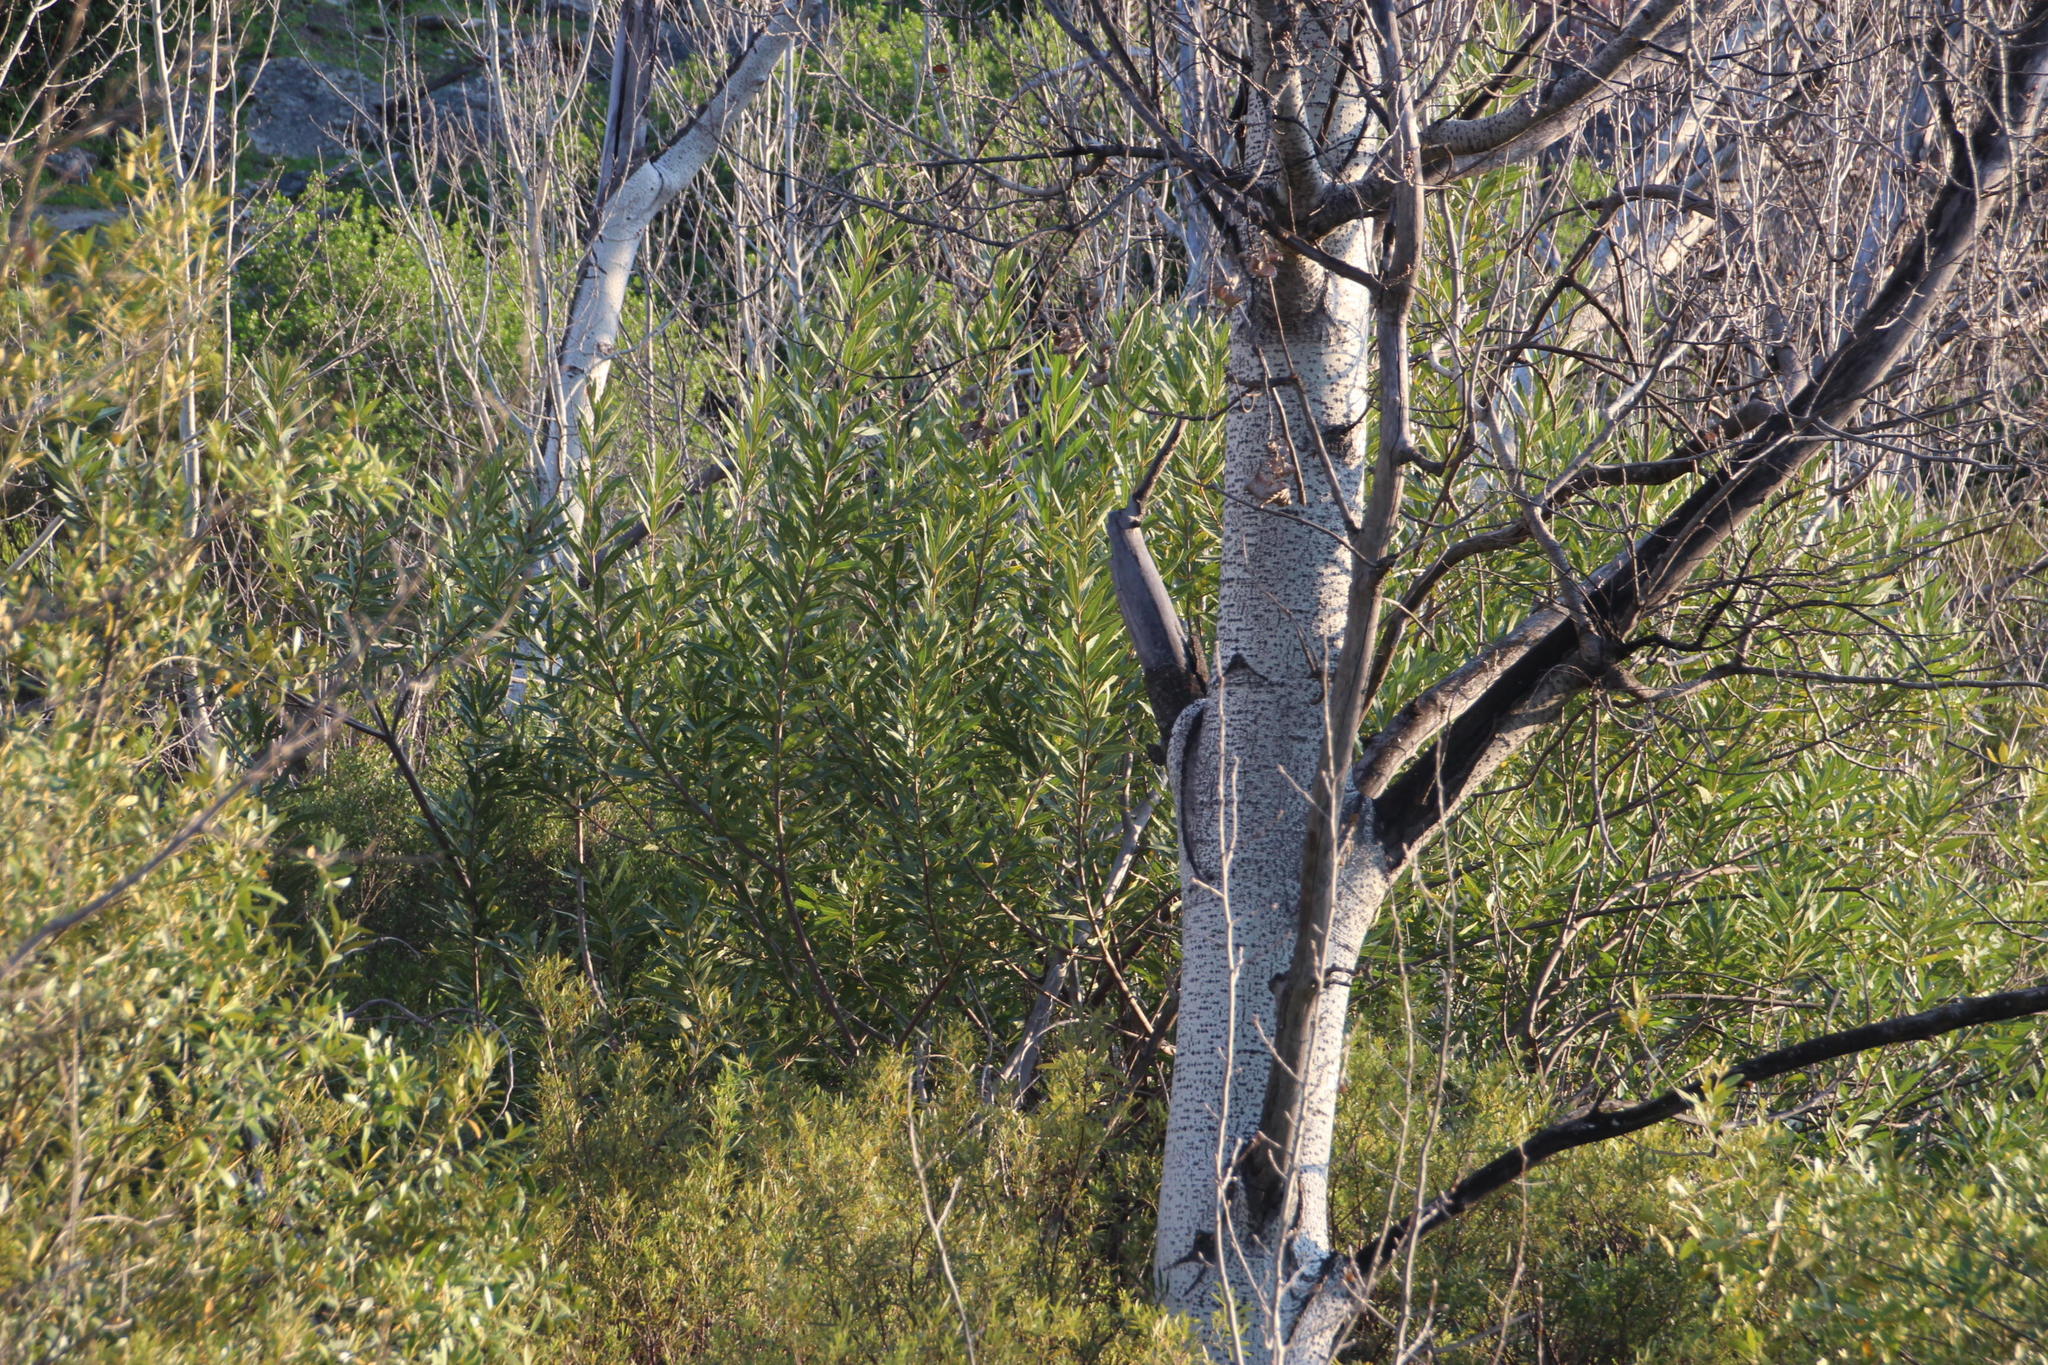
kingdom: Plantae
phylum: Tracheophyta
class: Magnoliopsida
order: Proteales
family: Proteaceae
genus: Brabejum
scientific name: Brabejum stellatifolium
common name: Wild almond
